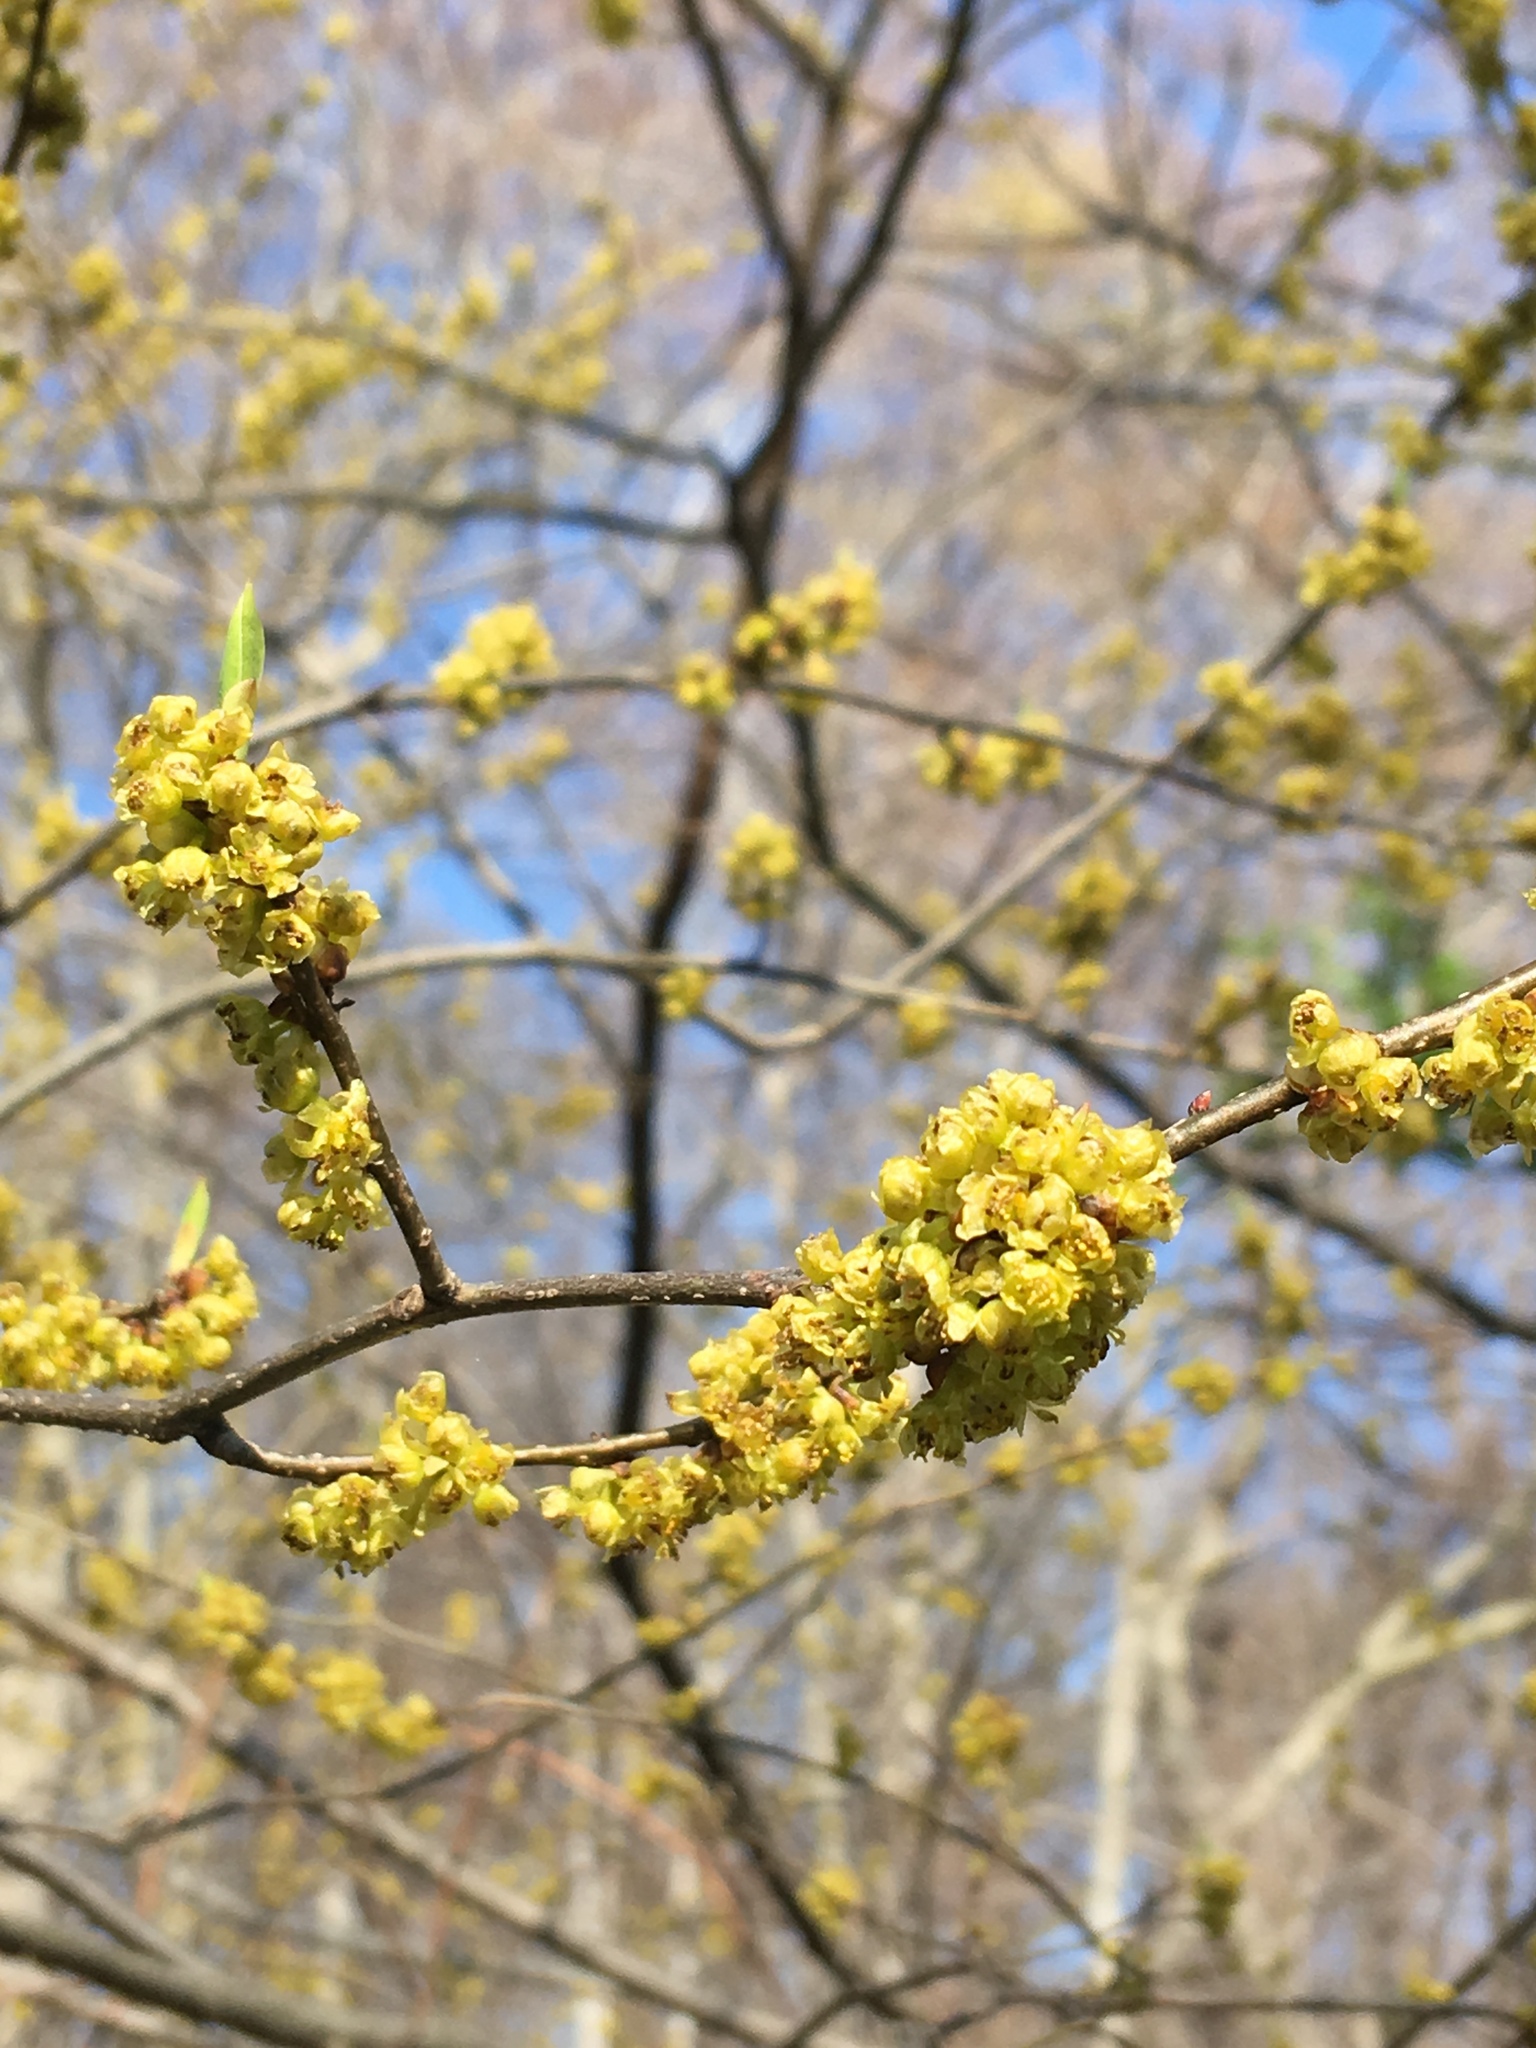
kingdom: Plantae
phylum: Tracheophyta
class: Magnoliopsida
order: Laurales
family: Lauraceae
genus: Lindera
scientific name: Lindera benzoin
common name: Spicebush
